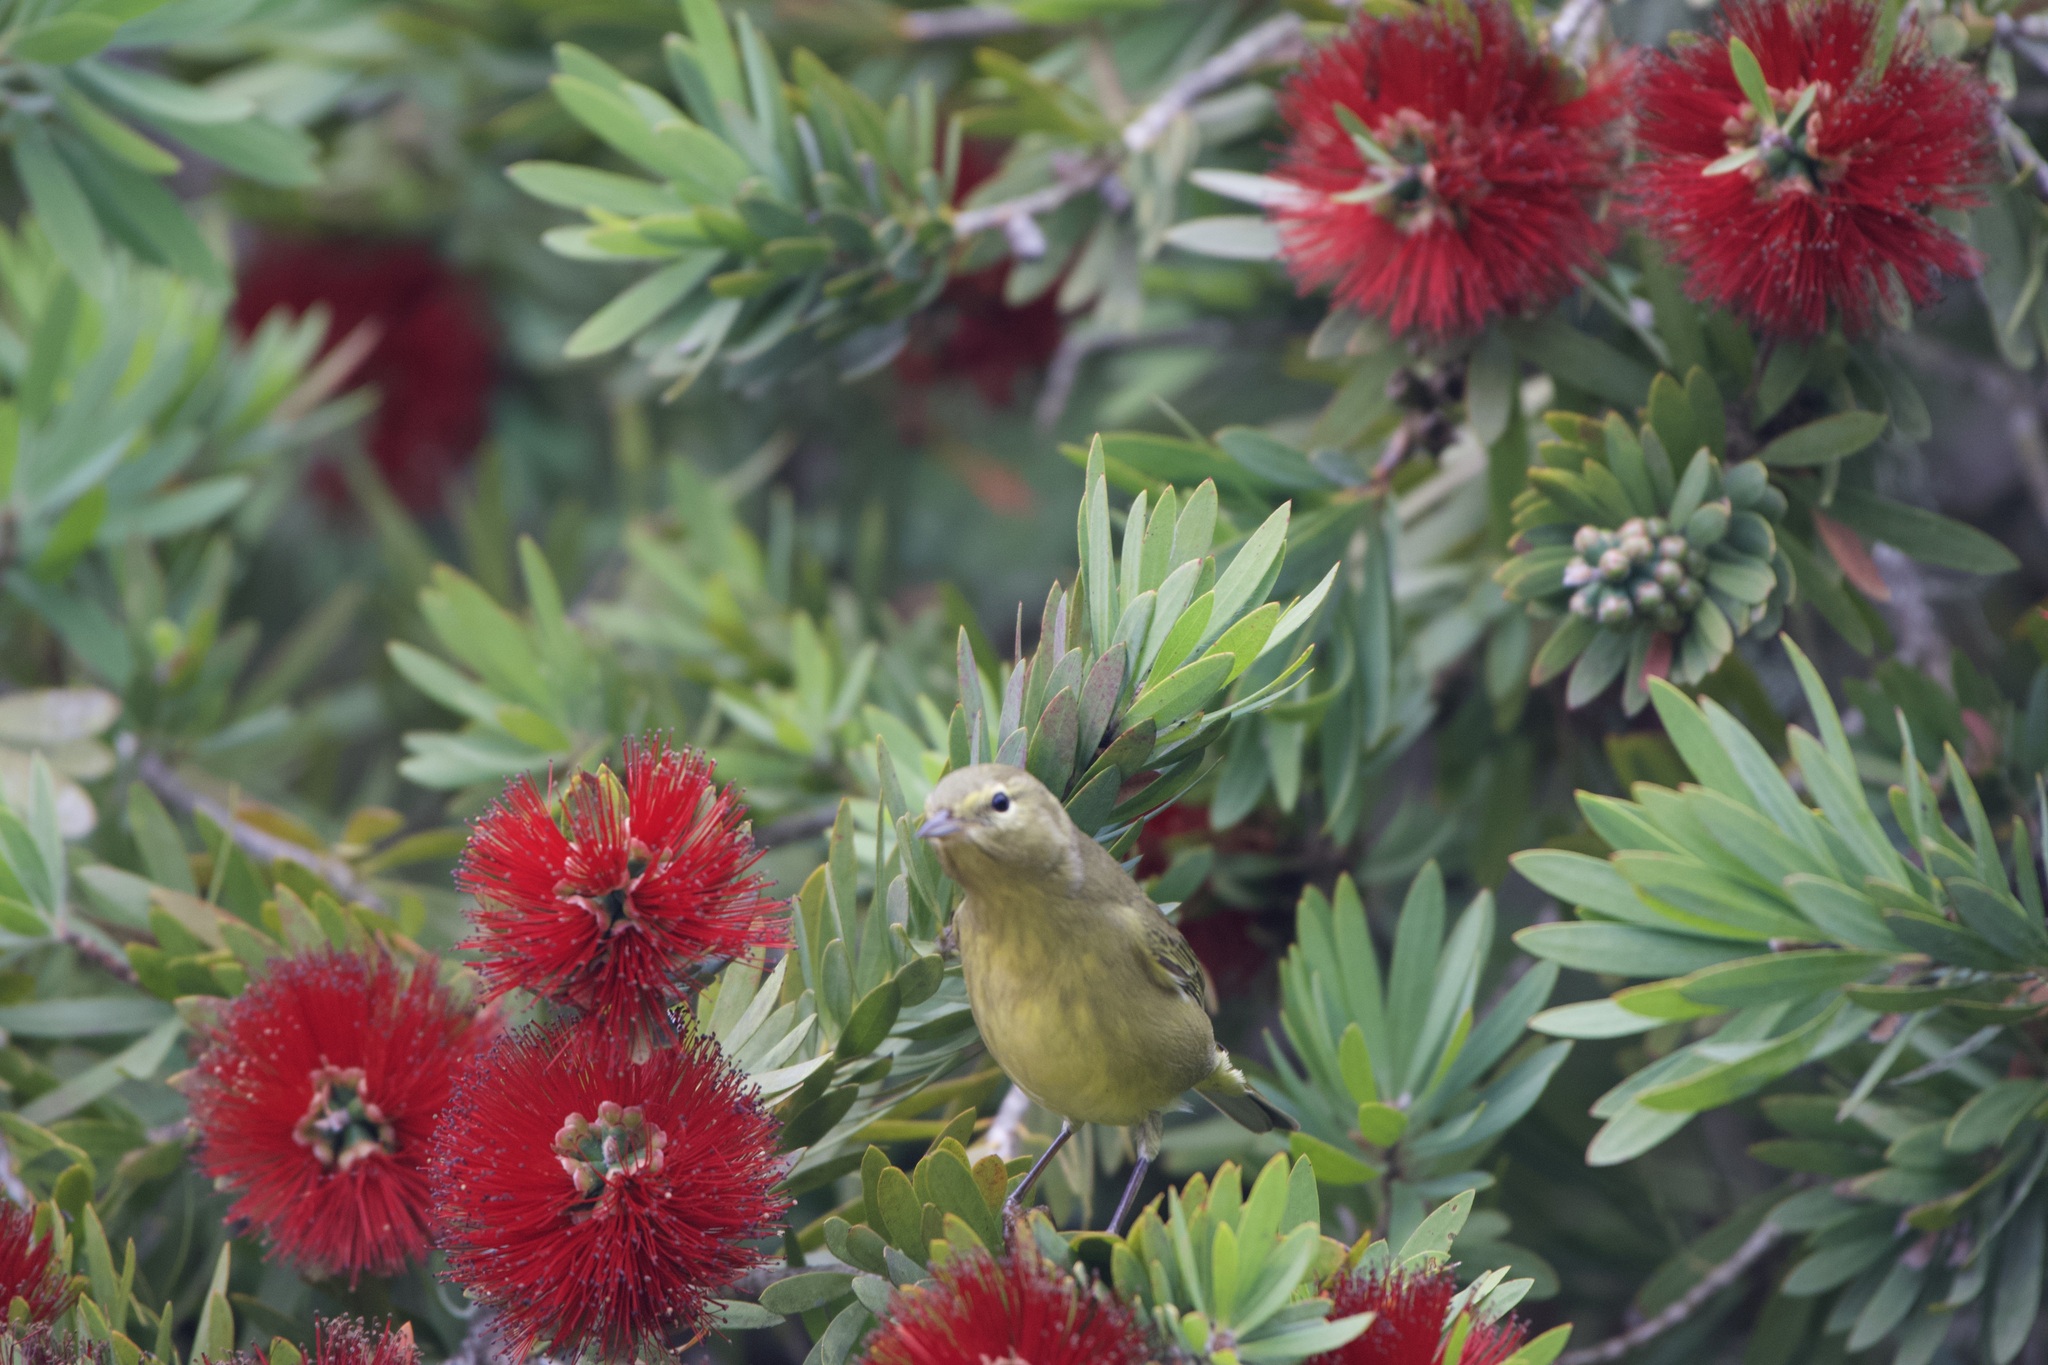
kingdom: Animalia
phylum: Chordata
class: Aves
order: Passeriformes
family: Parulidae
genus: Leiothlypis
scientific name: Leiothlypis celata
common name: Orange-crowned warbler
